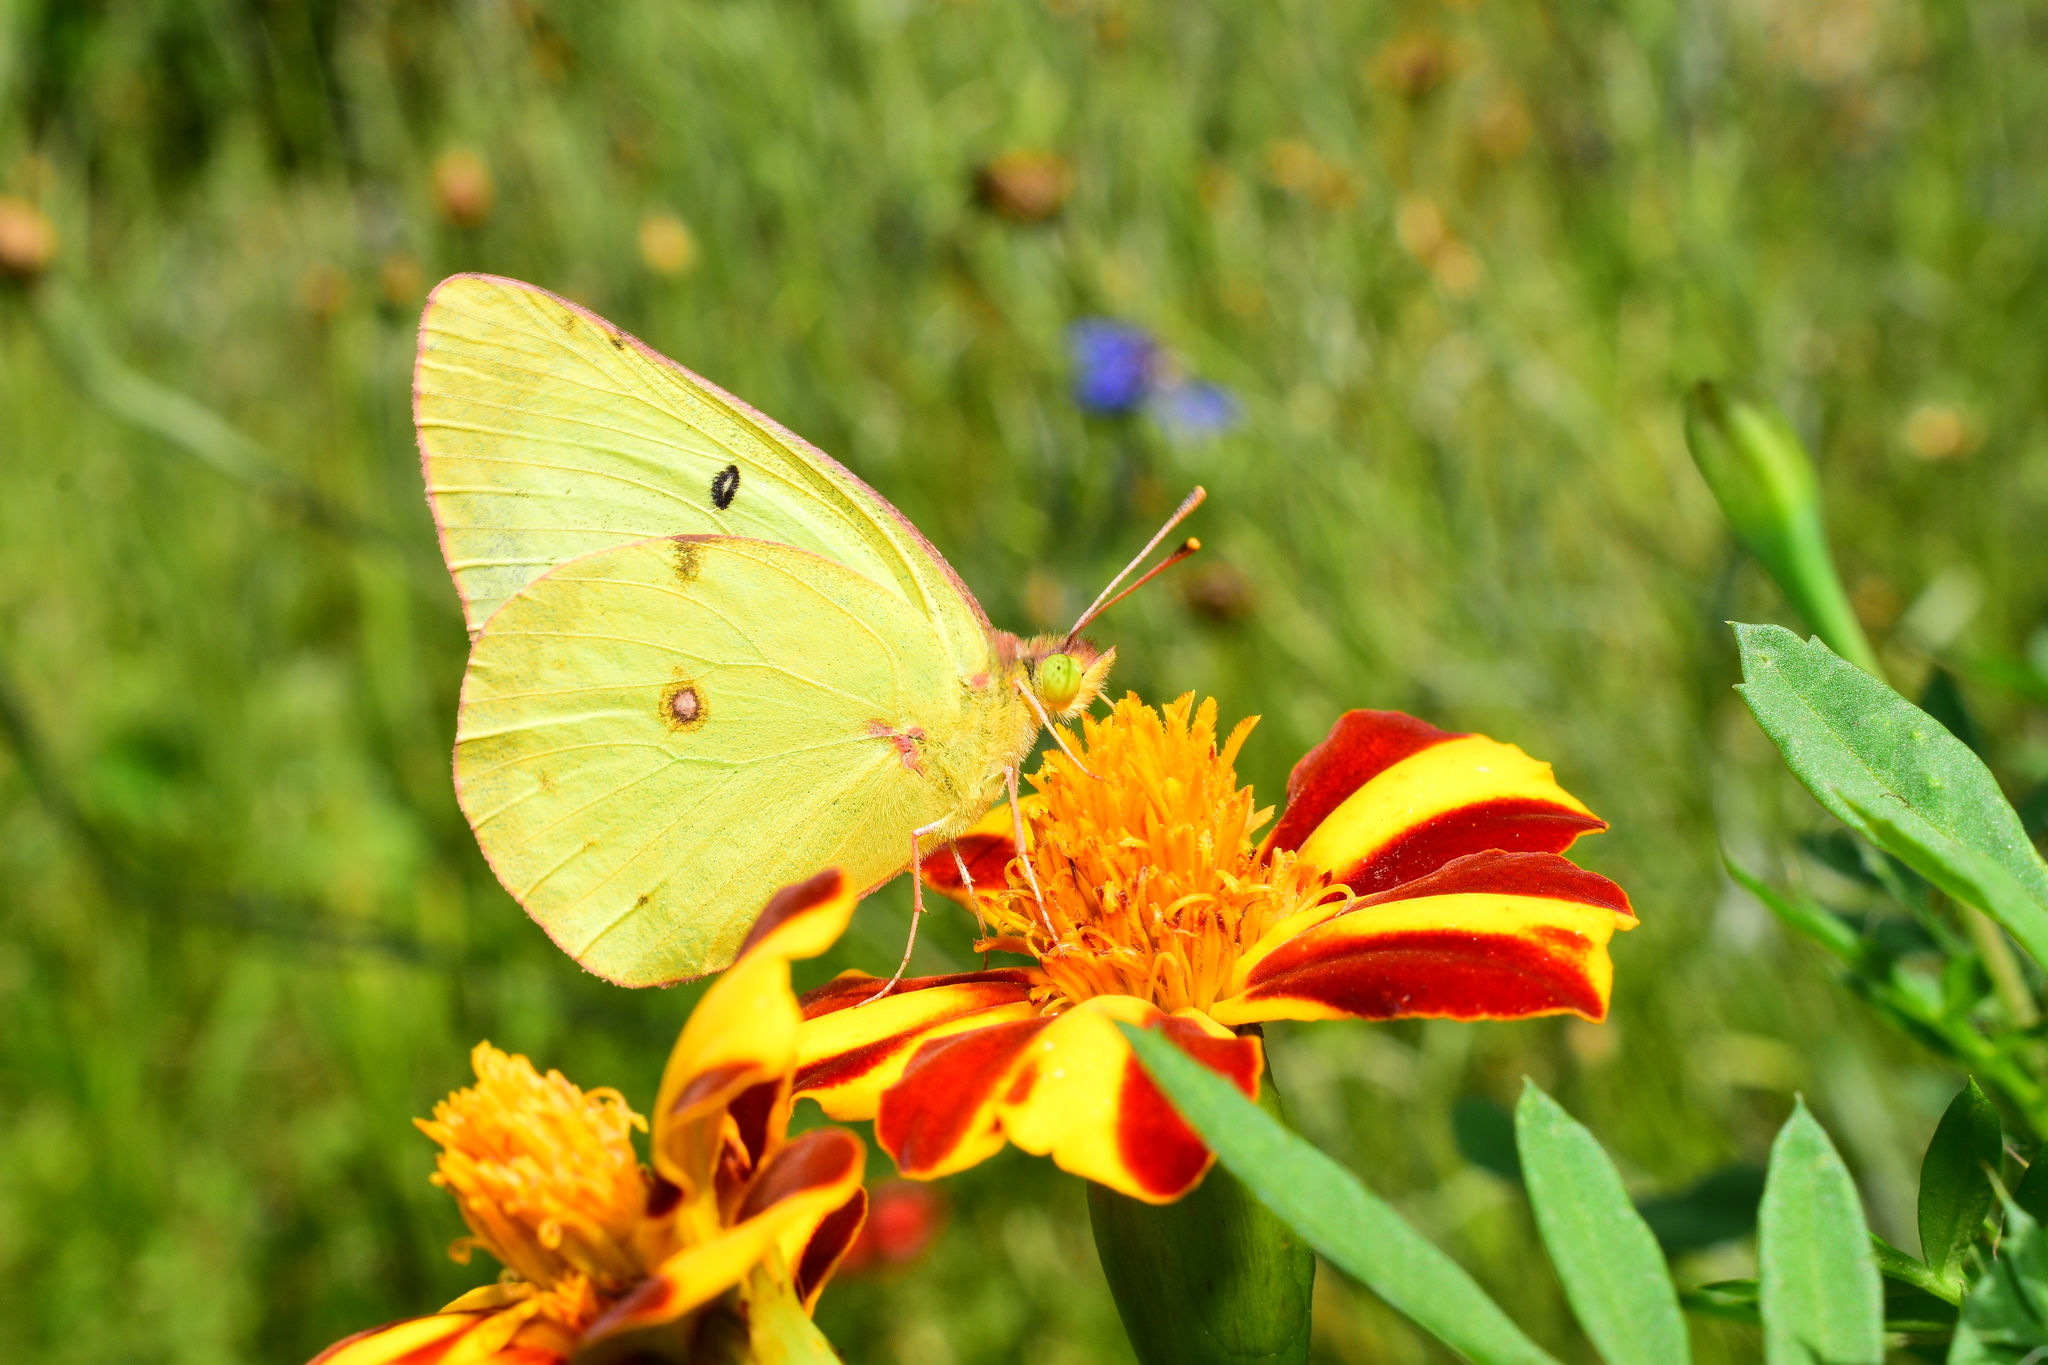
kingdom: Animalia
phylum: Arthropoda
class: Insecta
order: Lepidoptera
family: Pieridae
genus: Colias
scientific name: Colias philodice
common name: Clouded sulphur
